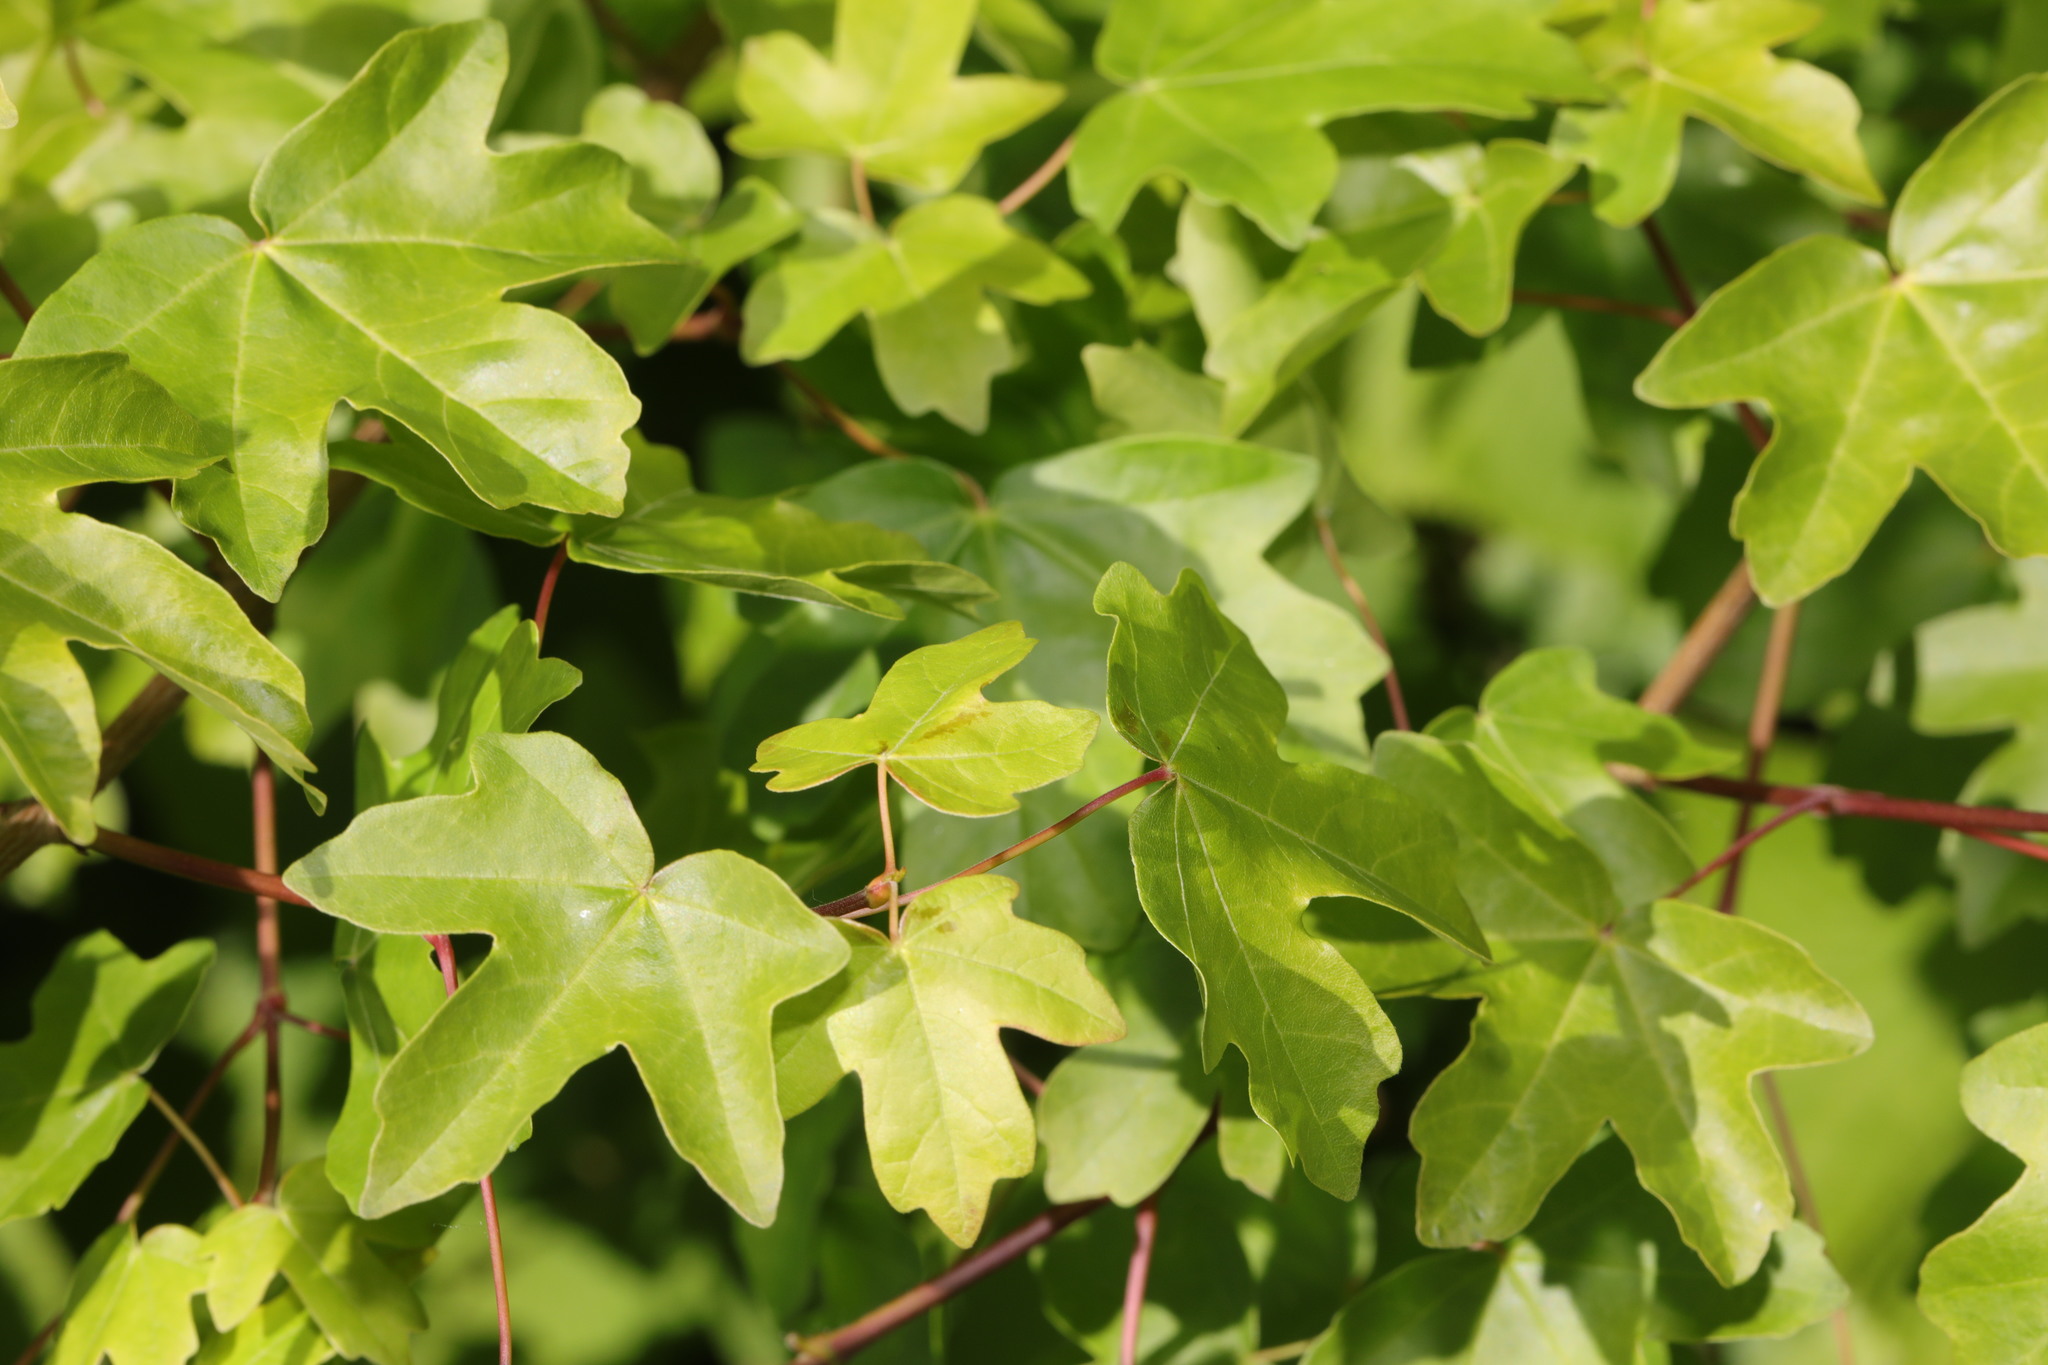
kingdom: Plantae
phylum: Tracheophyta
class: Magnoliopsida
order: Sapindales
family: Sapindaceae
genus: Acer
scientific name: Acer campestre
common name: Field maple
